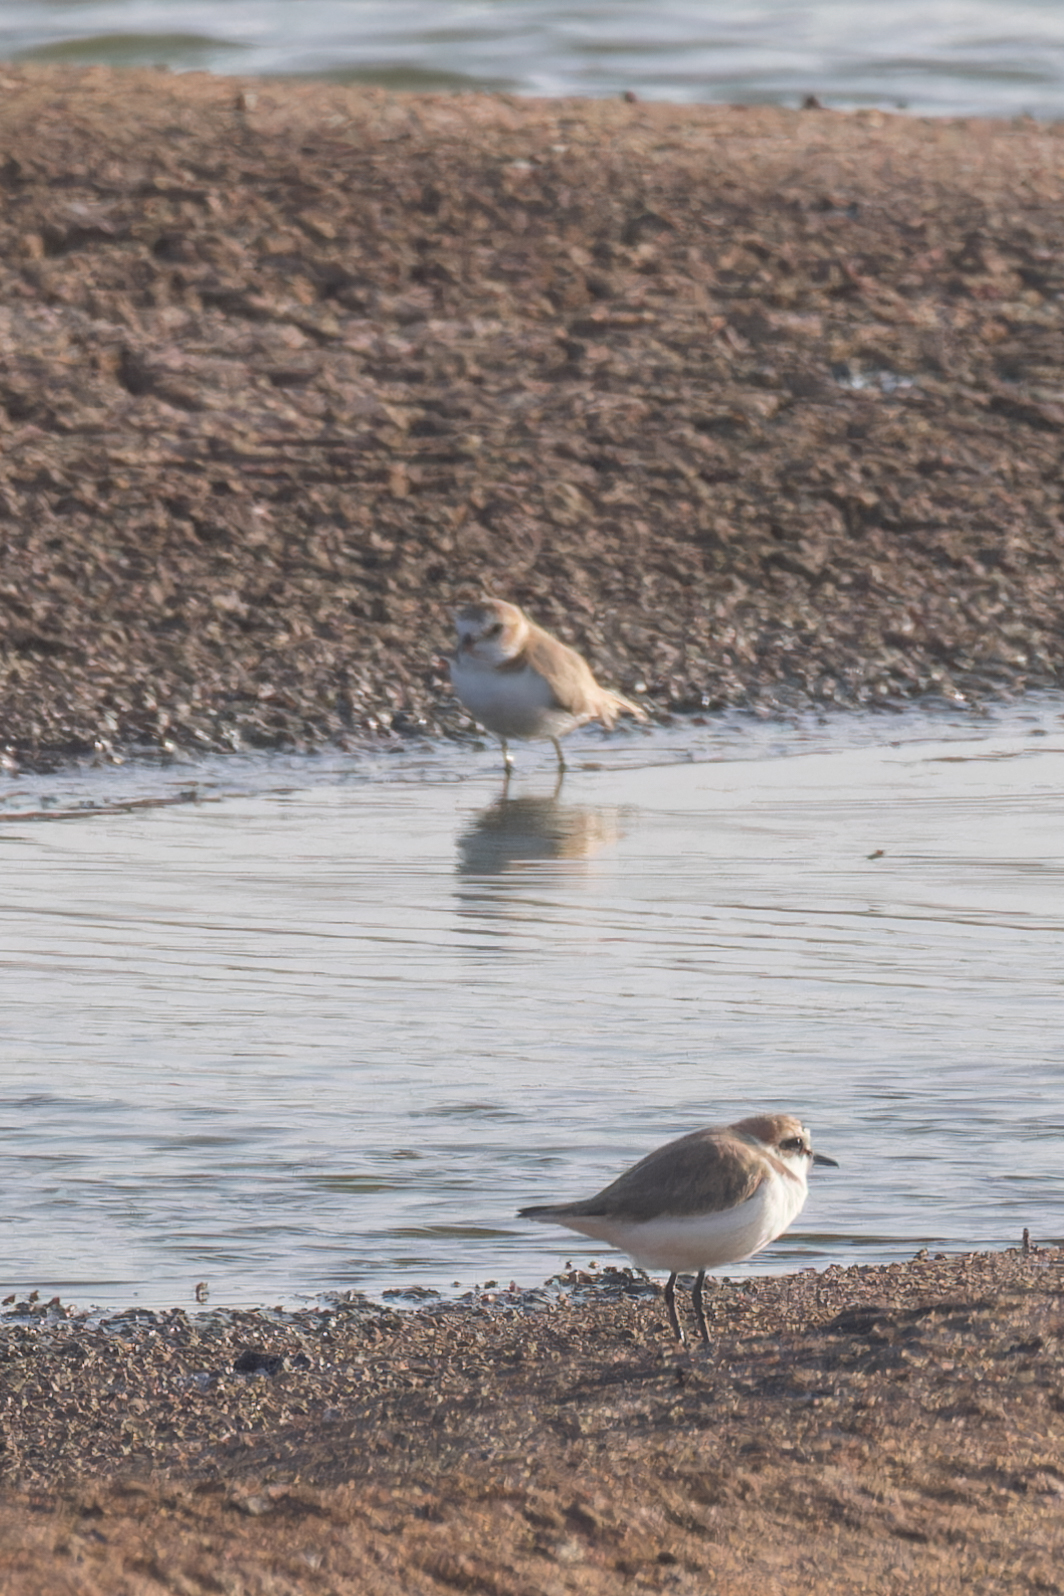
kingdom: Animalia
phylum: Chordata
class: Aves
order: Charadriiformes
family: Charadriidae
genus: Charadrius
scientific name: Charadrius alexandrinus
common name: Kentish plover
